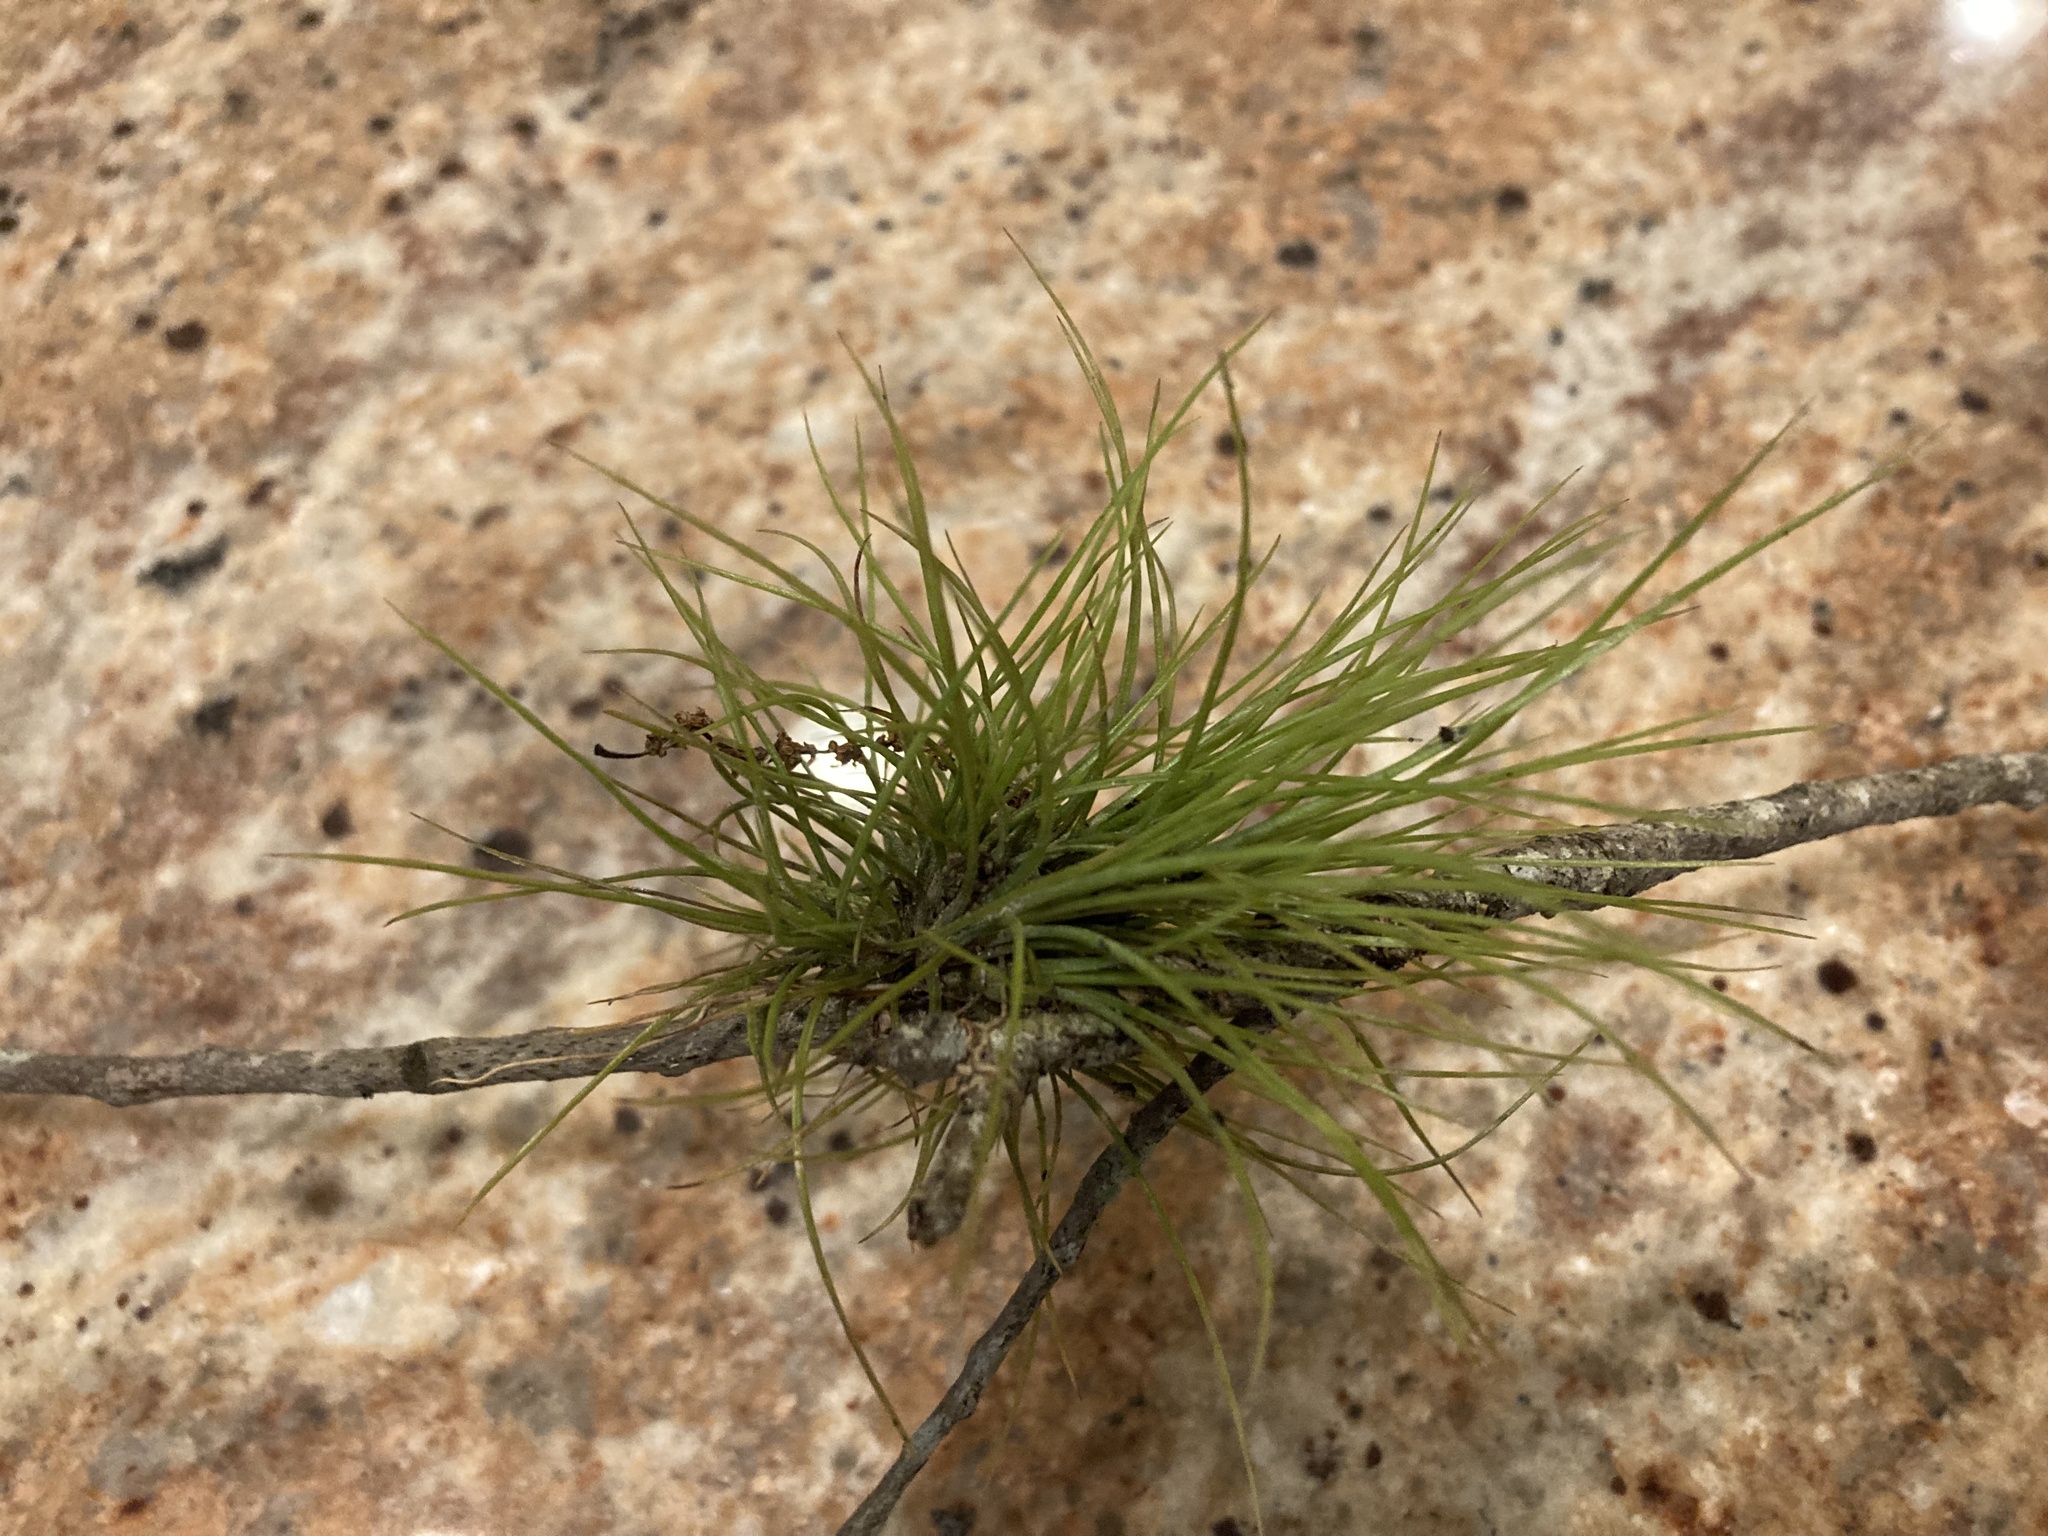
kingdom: Plantae
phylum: Tracheophyta
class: Liliopsida
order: Poales
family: Bromeliaceae
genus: Tillandsia
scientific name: Tillandsia setacea
